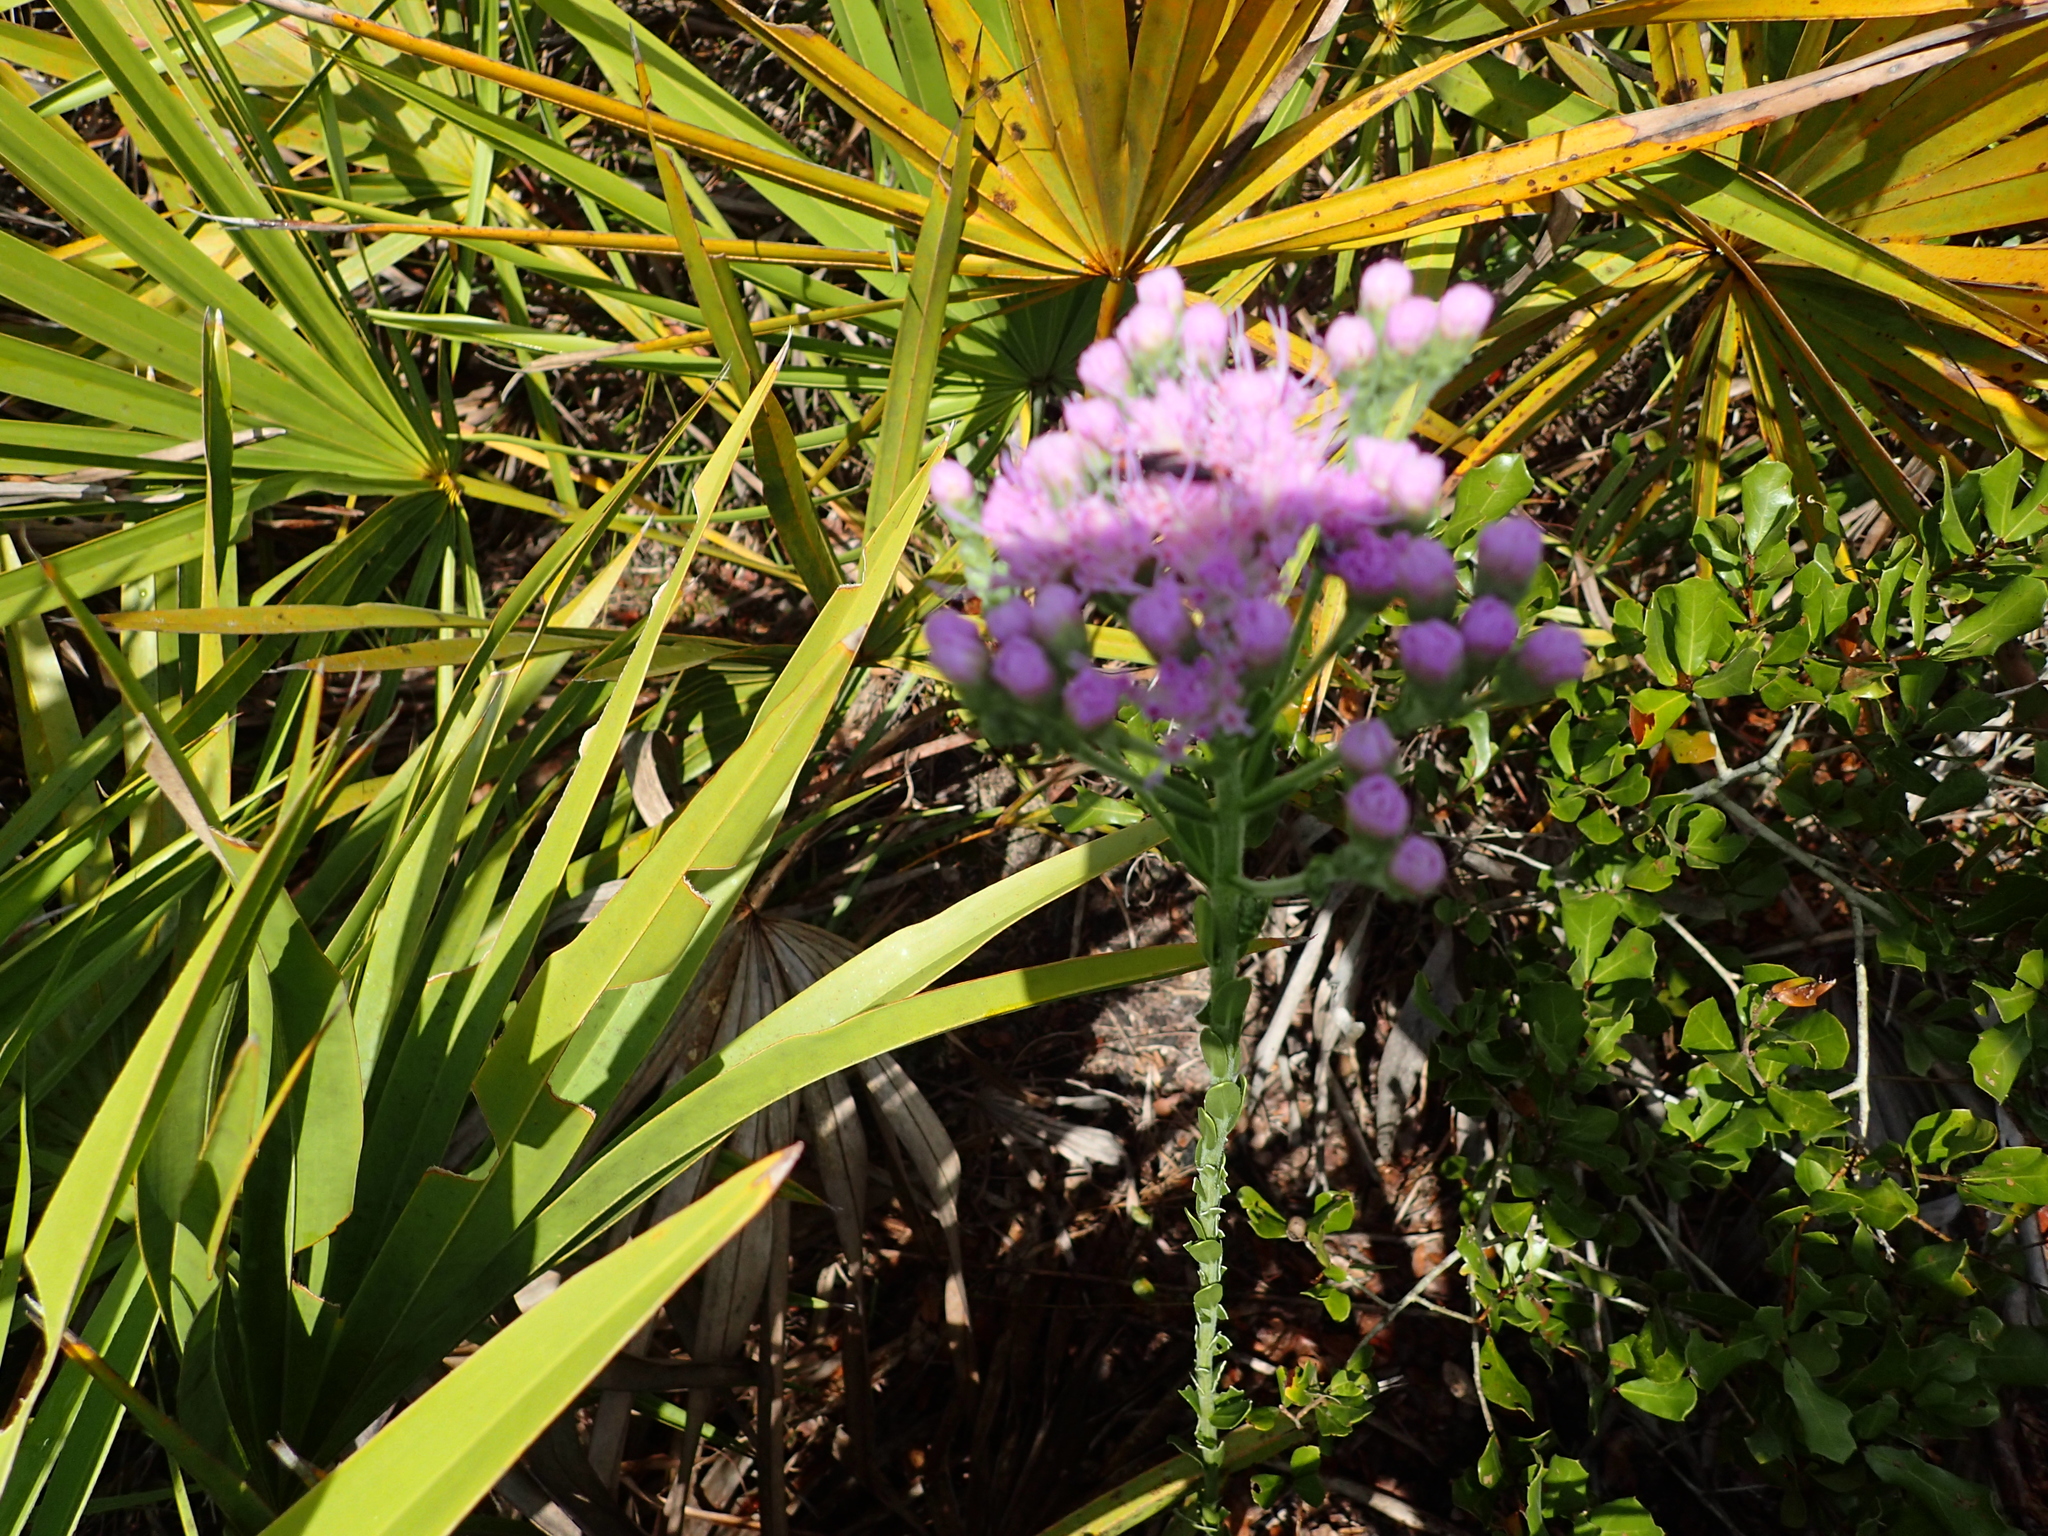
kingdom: Plantae
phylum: Tracheophyta
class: Magnoliopsida
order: Asterales
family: Asteraceae
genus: Carphephorus
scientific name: Carphephorus corymbosus
